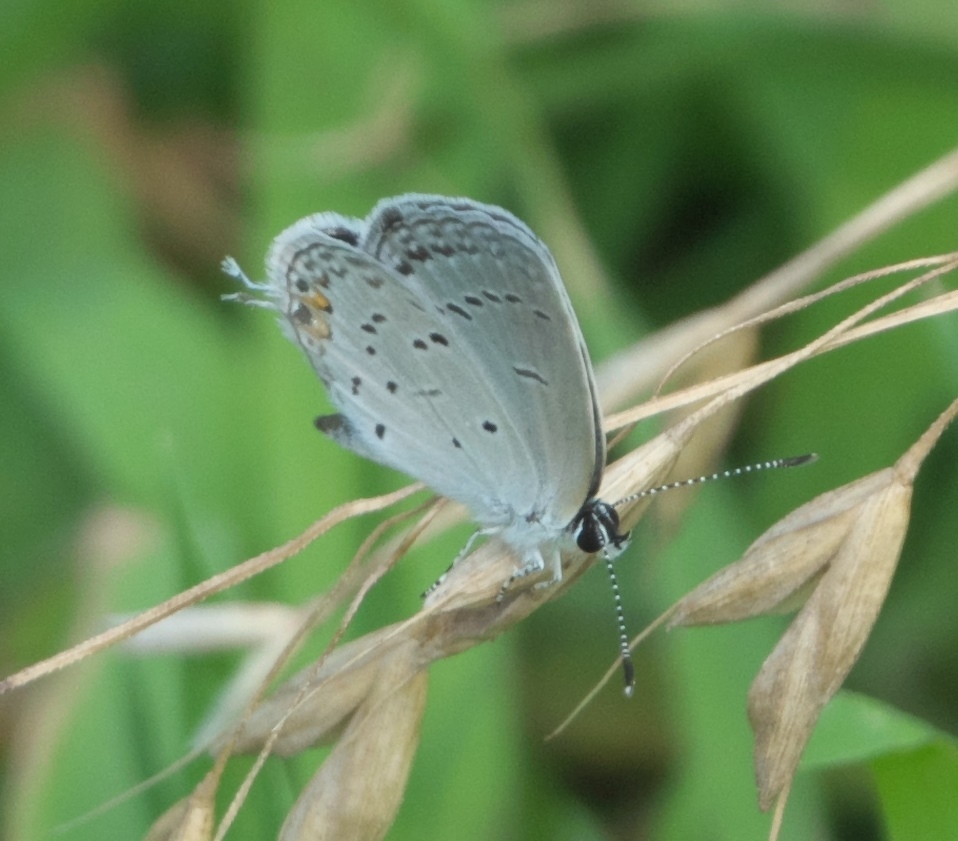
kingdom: Animalia
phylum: Arthropoda
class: Insecta
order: Lepidoptera
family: Lycaenidae
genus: Elkalyce
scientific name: Elkalyce comyntas
